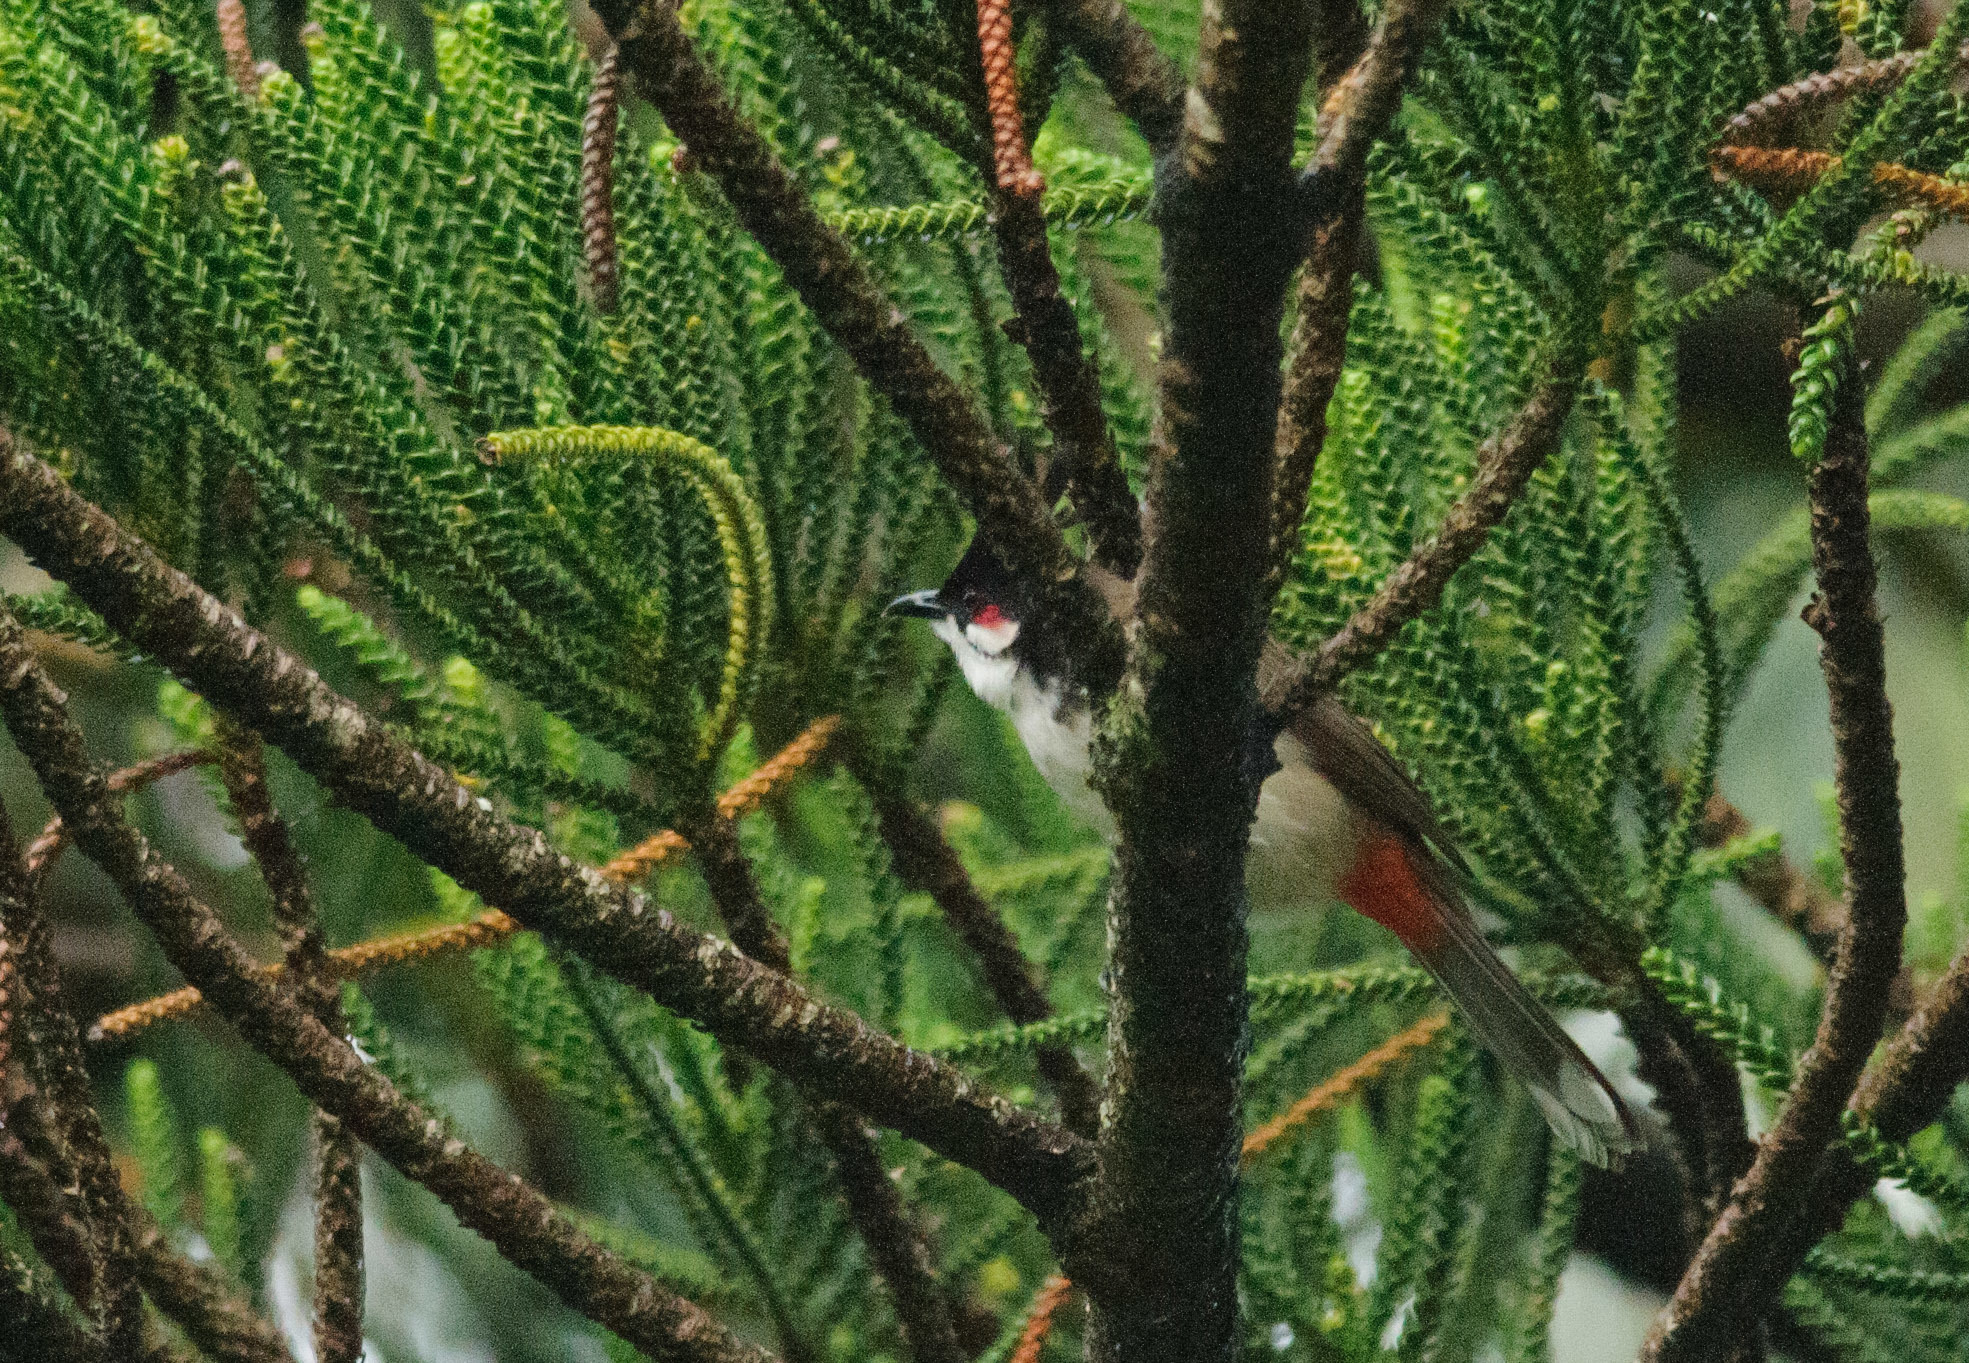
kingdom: Animalia
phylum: Chordata
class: Aves
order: Passeriformes
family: Pycnonotidae
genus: Pycnonotus
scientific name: Pycnonotus jocosus
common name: Red-whiskered bulbul
